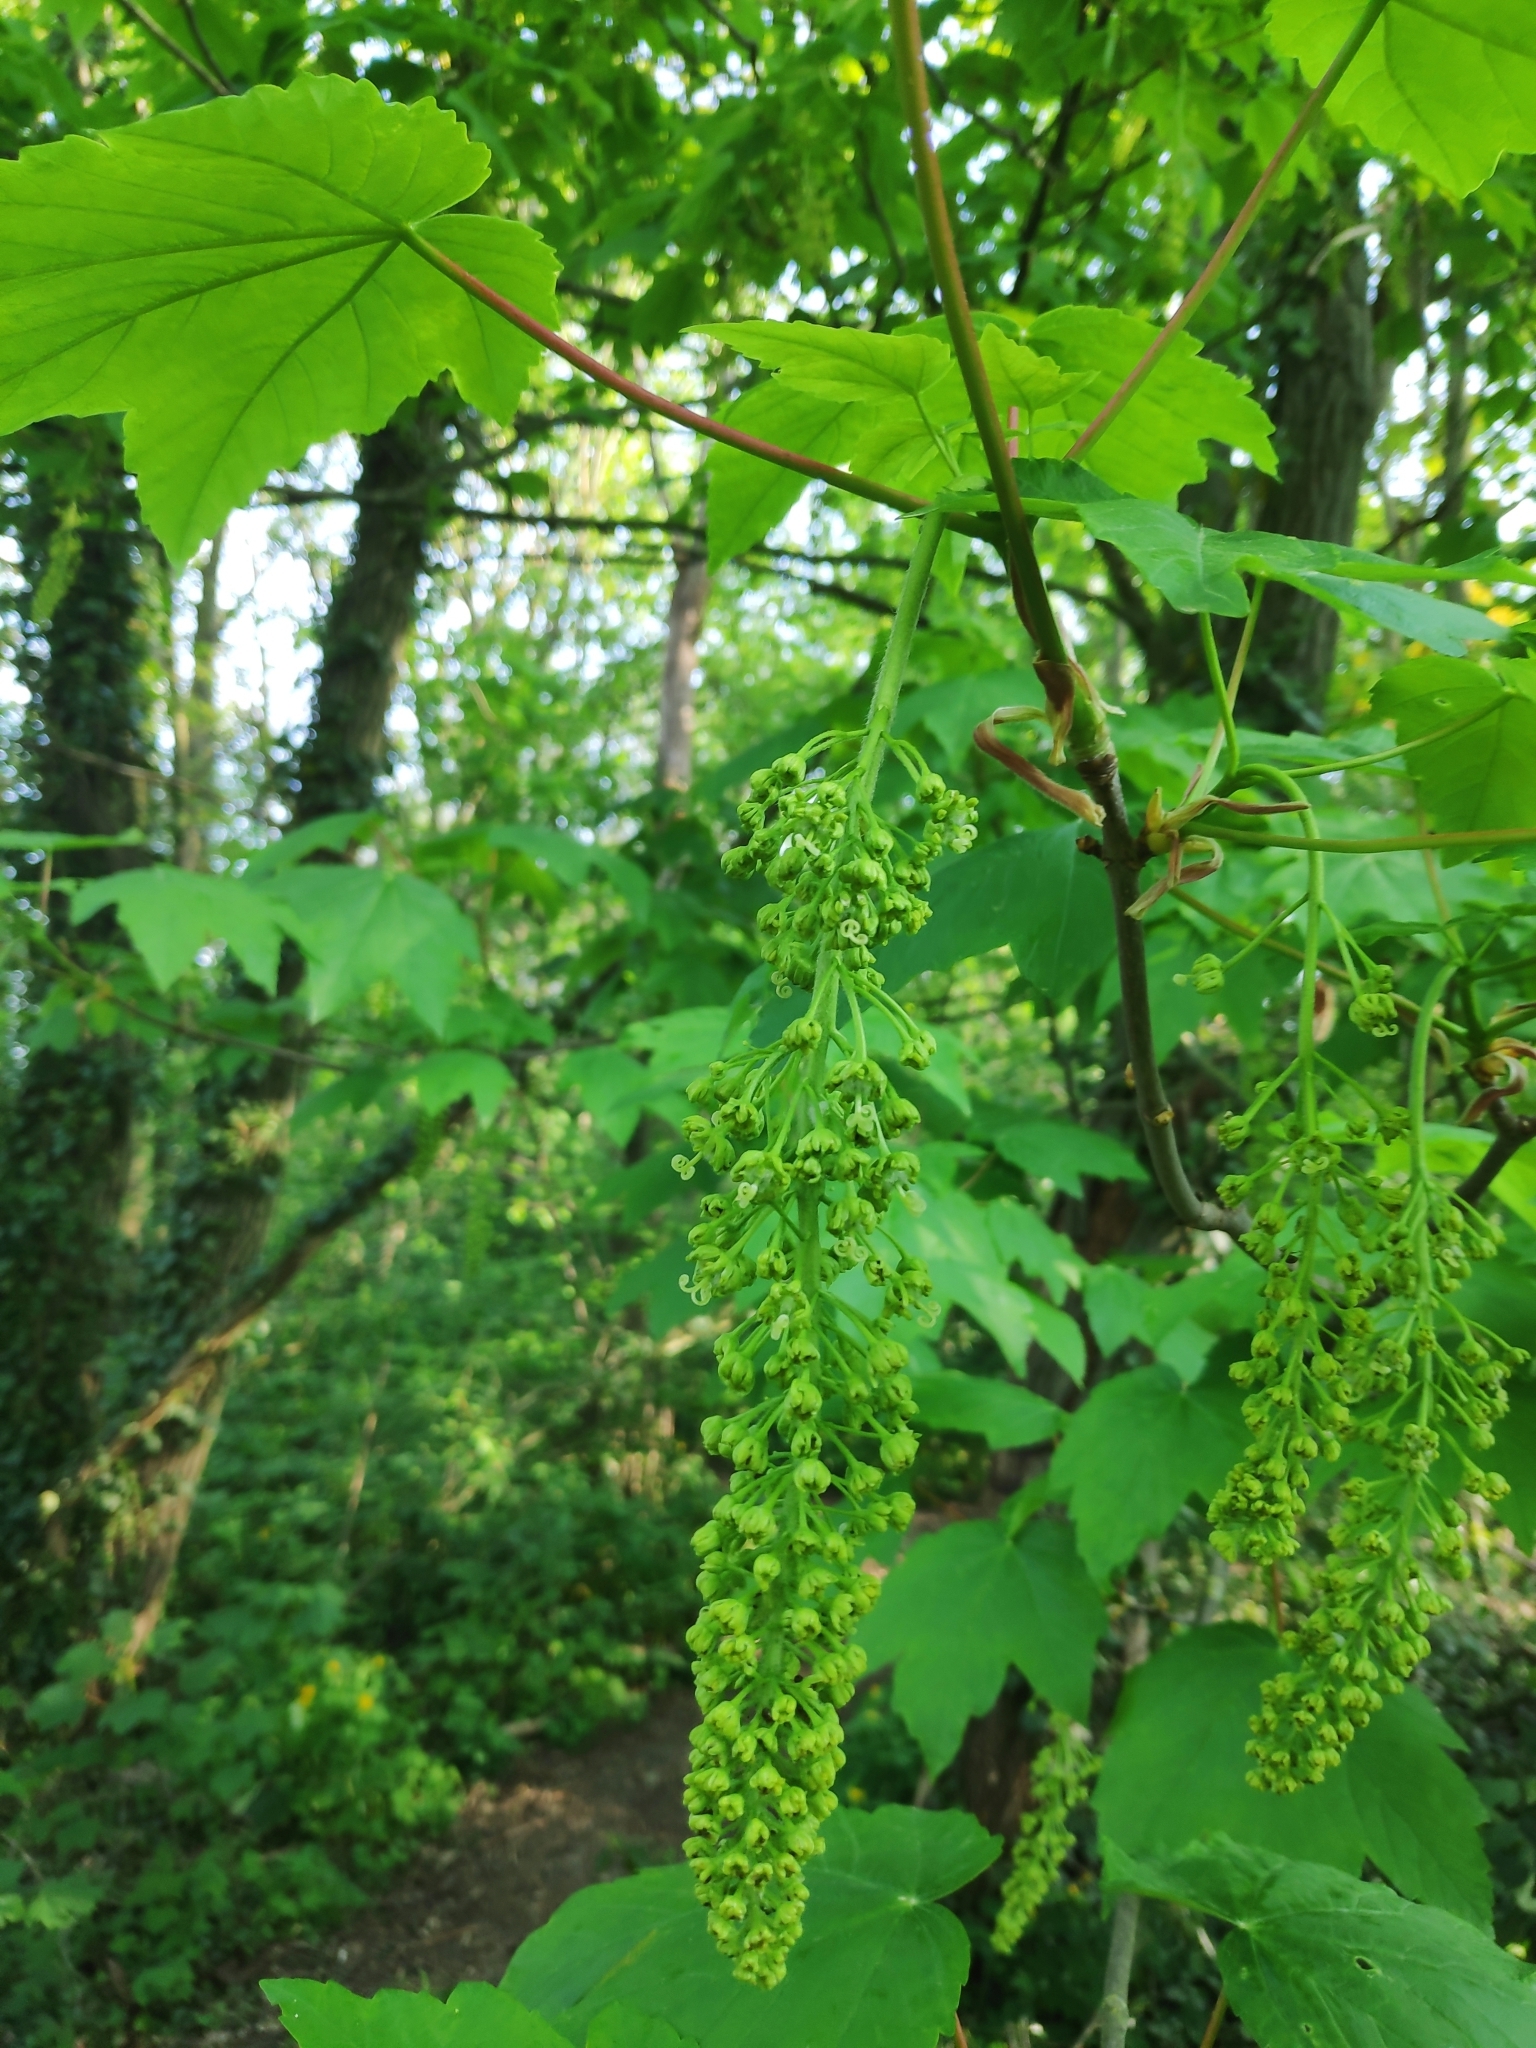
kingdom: Plantae
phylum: Tracheophyta
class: Magnoliopsida
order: Sapindales
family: Sapindaceae
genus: Acer
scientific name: Acer pseudoplatanus
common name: Sycamore
